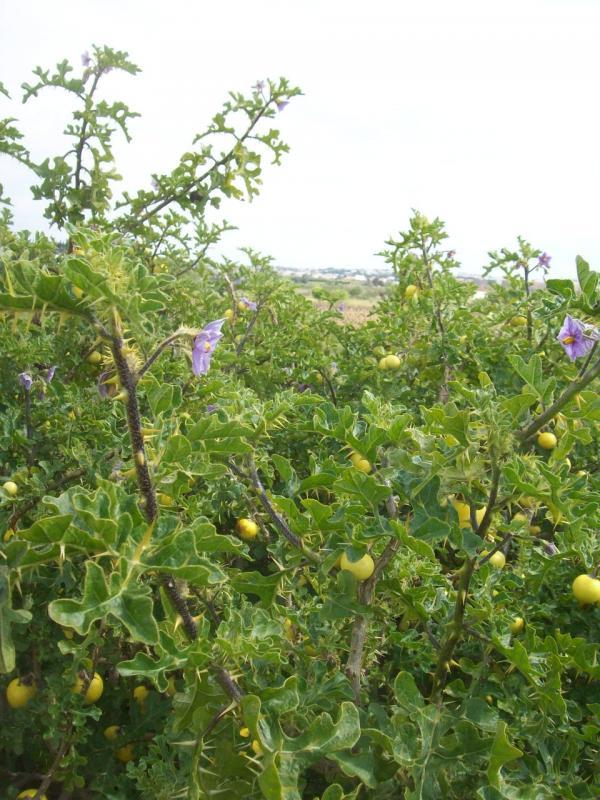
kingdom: Plantae
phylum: Tracheophyta
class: Magnoliopsida
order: Solanales
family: Solanaceae
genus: Solanum
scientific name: Solanum linnaeanum
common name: Nightshade
